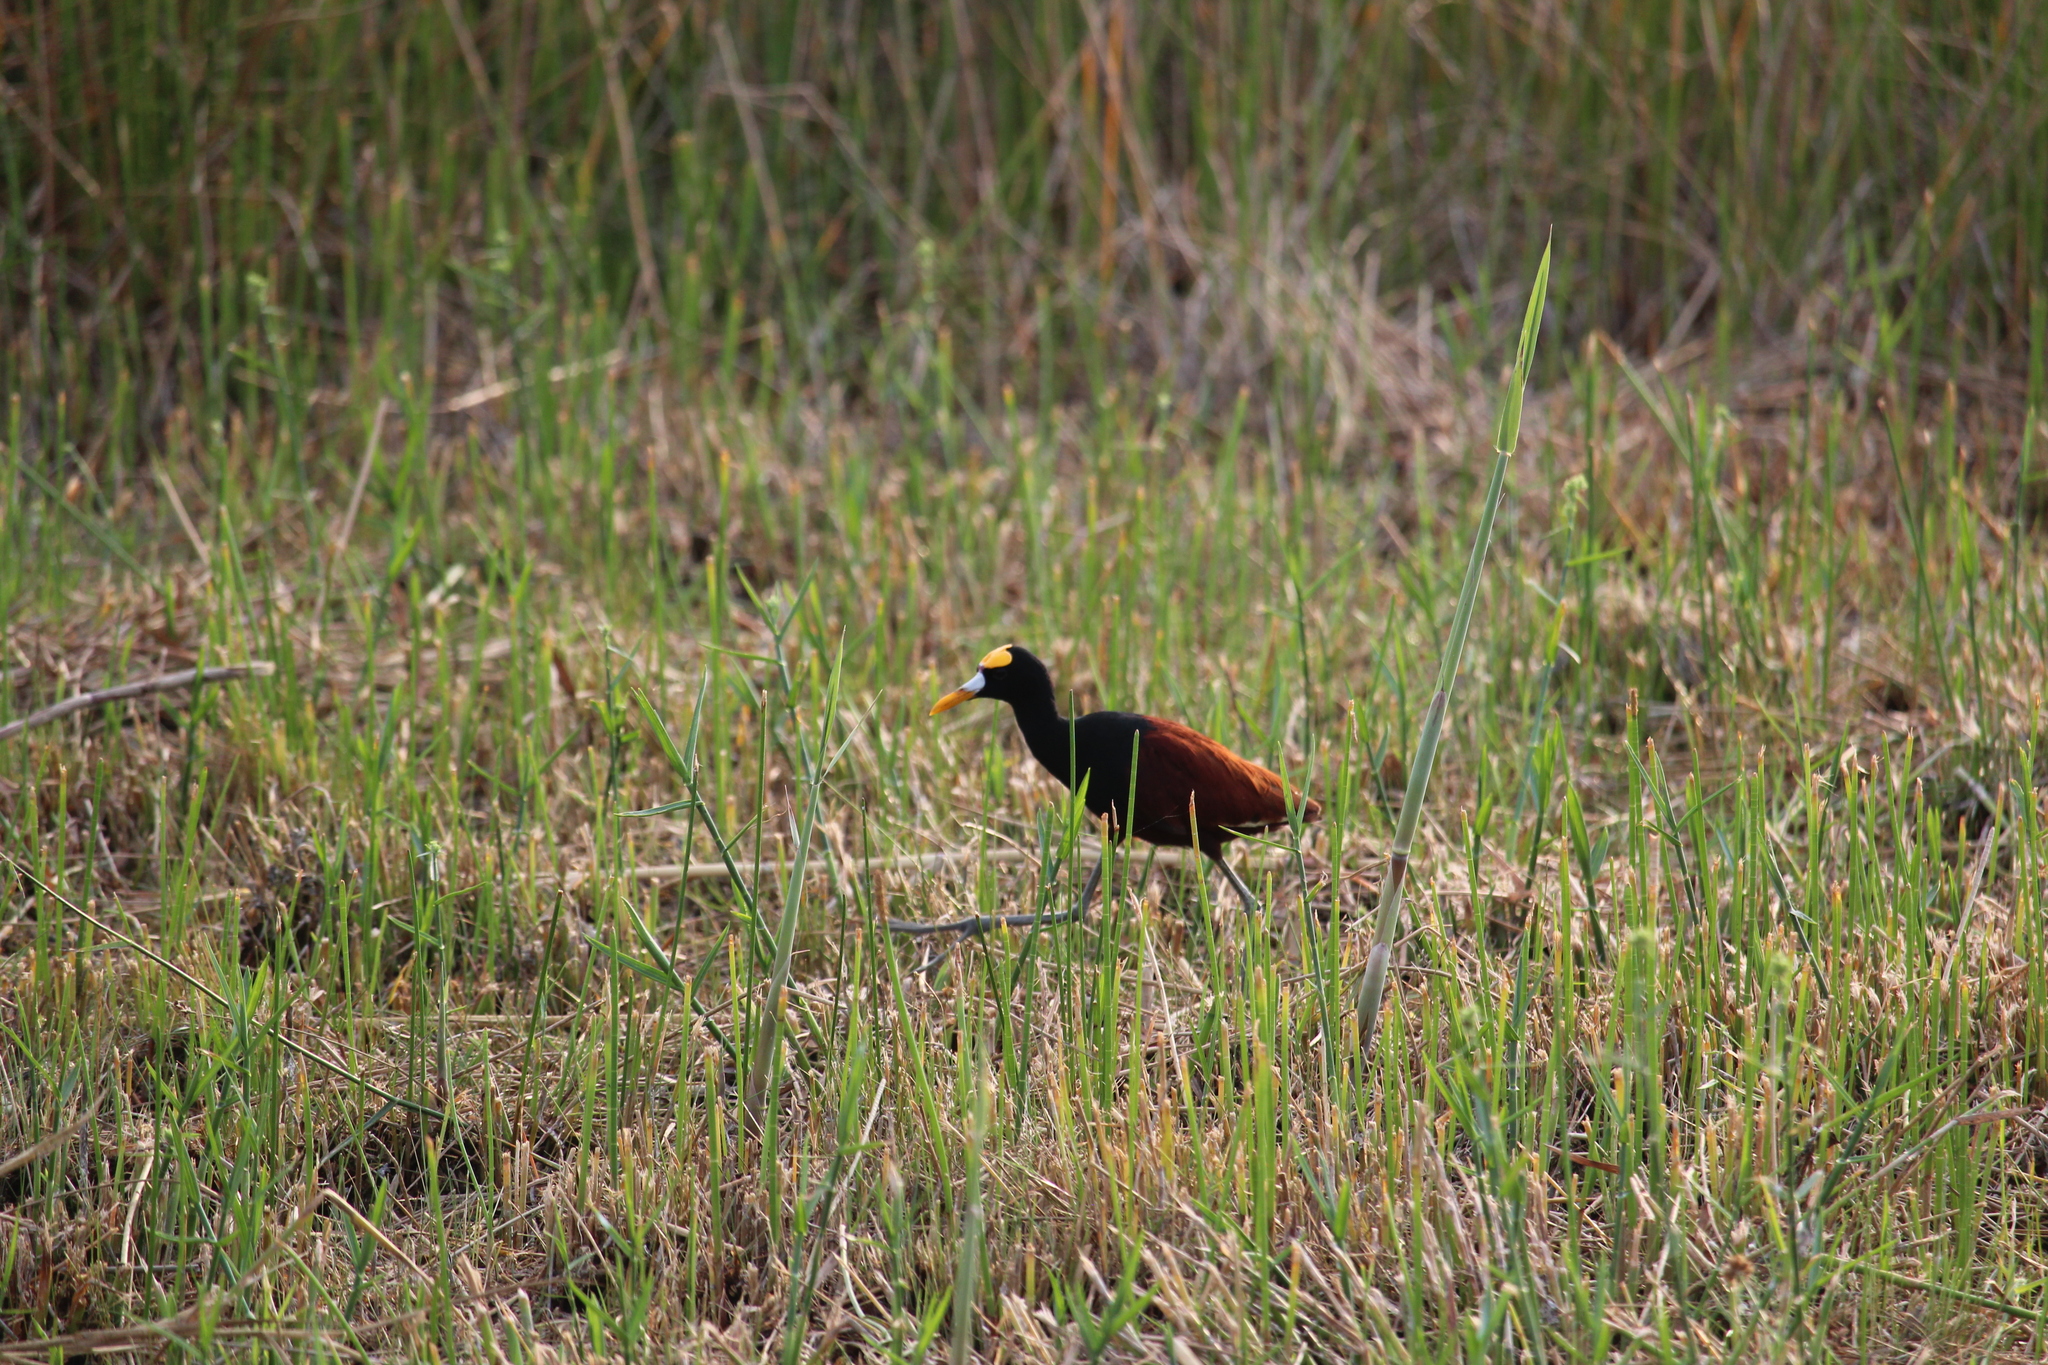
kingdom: Animalia
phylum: Chordata
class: Aves
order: Charadriiformes
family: Jacanidae
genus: Jacana
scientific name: Jacana spinosa
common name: Northern jacana
